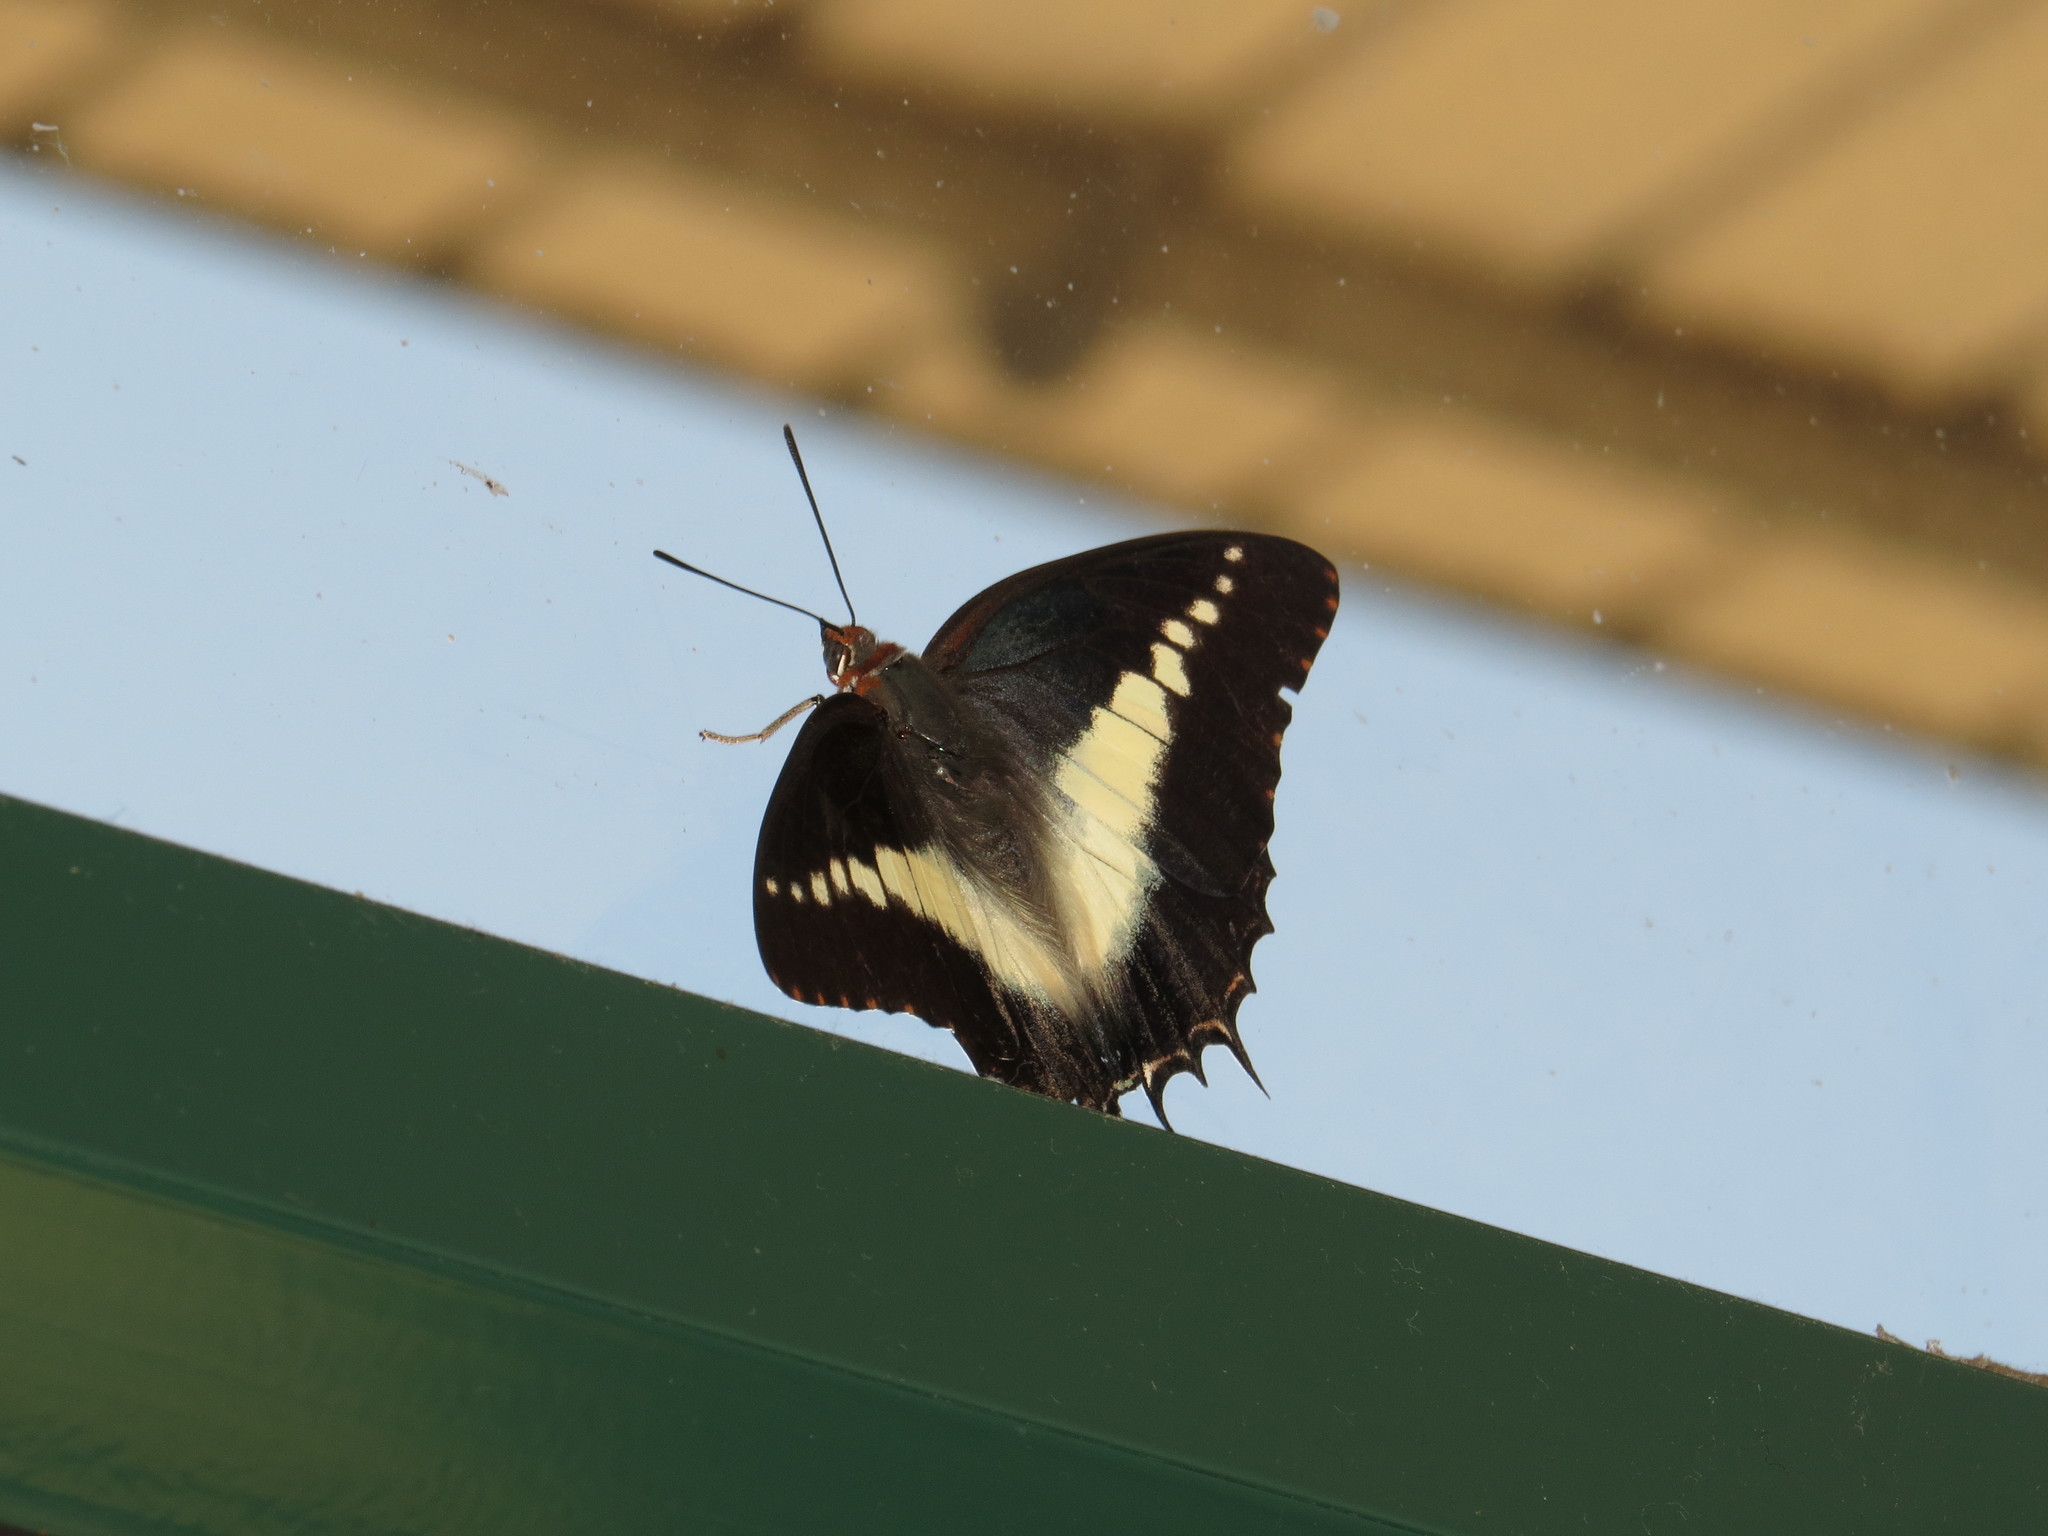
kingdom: Animalia
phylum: Arthropoda
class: Insecta
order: Lepidoptera
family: Nymphalidae
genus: Charaxes
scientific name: Charaxes brutus
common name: White-barred charaxes
